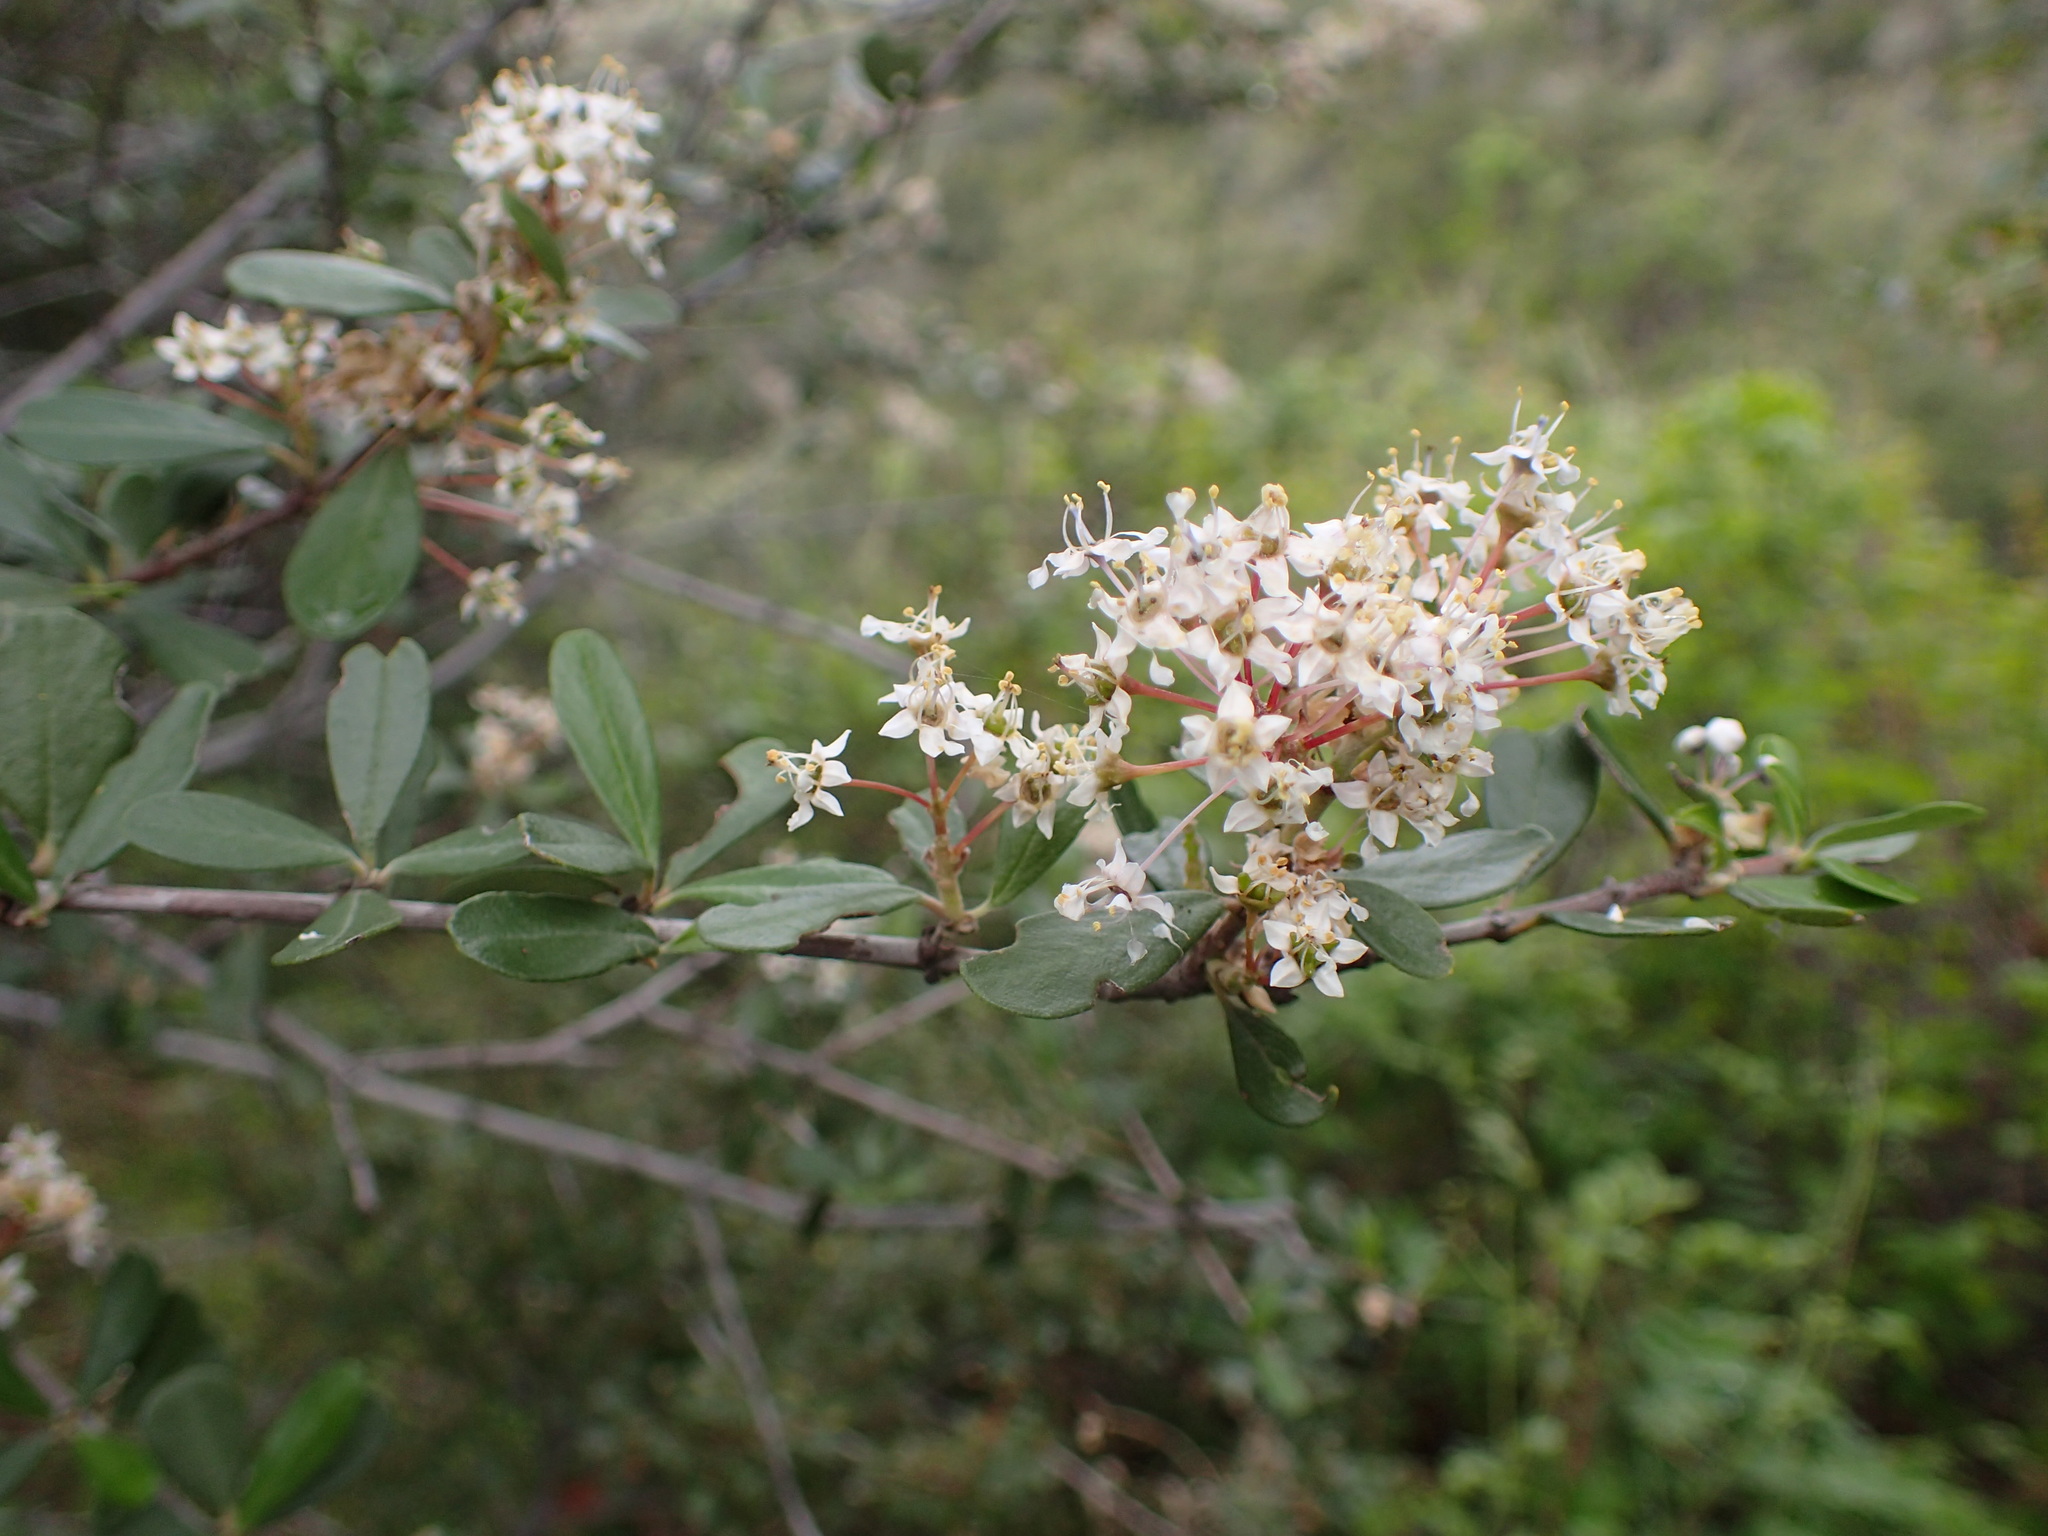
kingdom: Plantae
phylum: Tracheophyta
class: Magnoliopsida
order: Rosales
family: Rhamnaceae
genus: Ceanothus
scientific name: Ceanothus cuneatus
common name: Cuneate ceanothus
